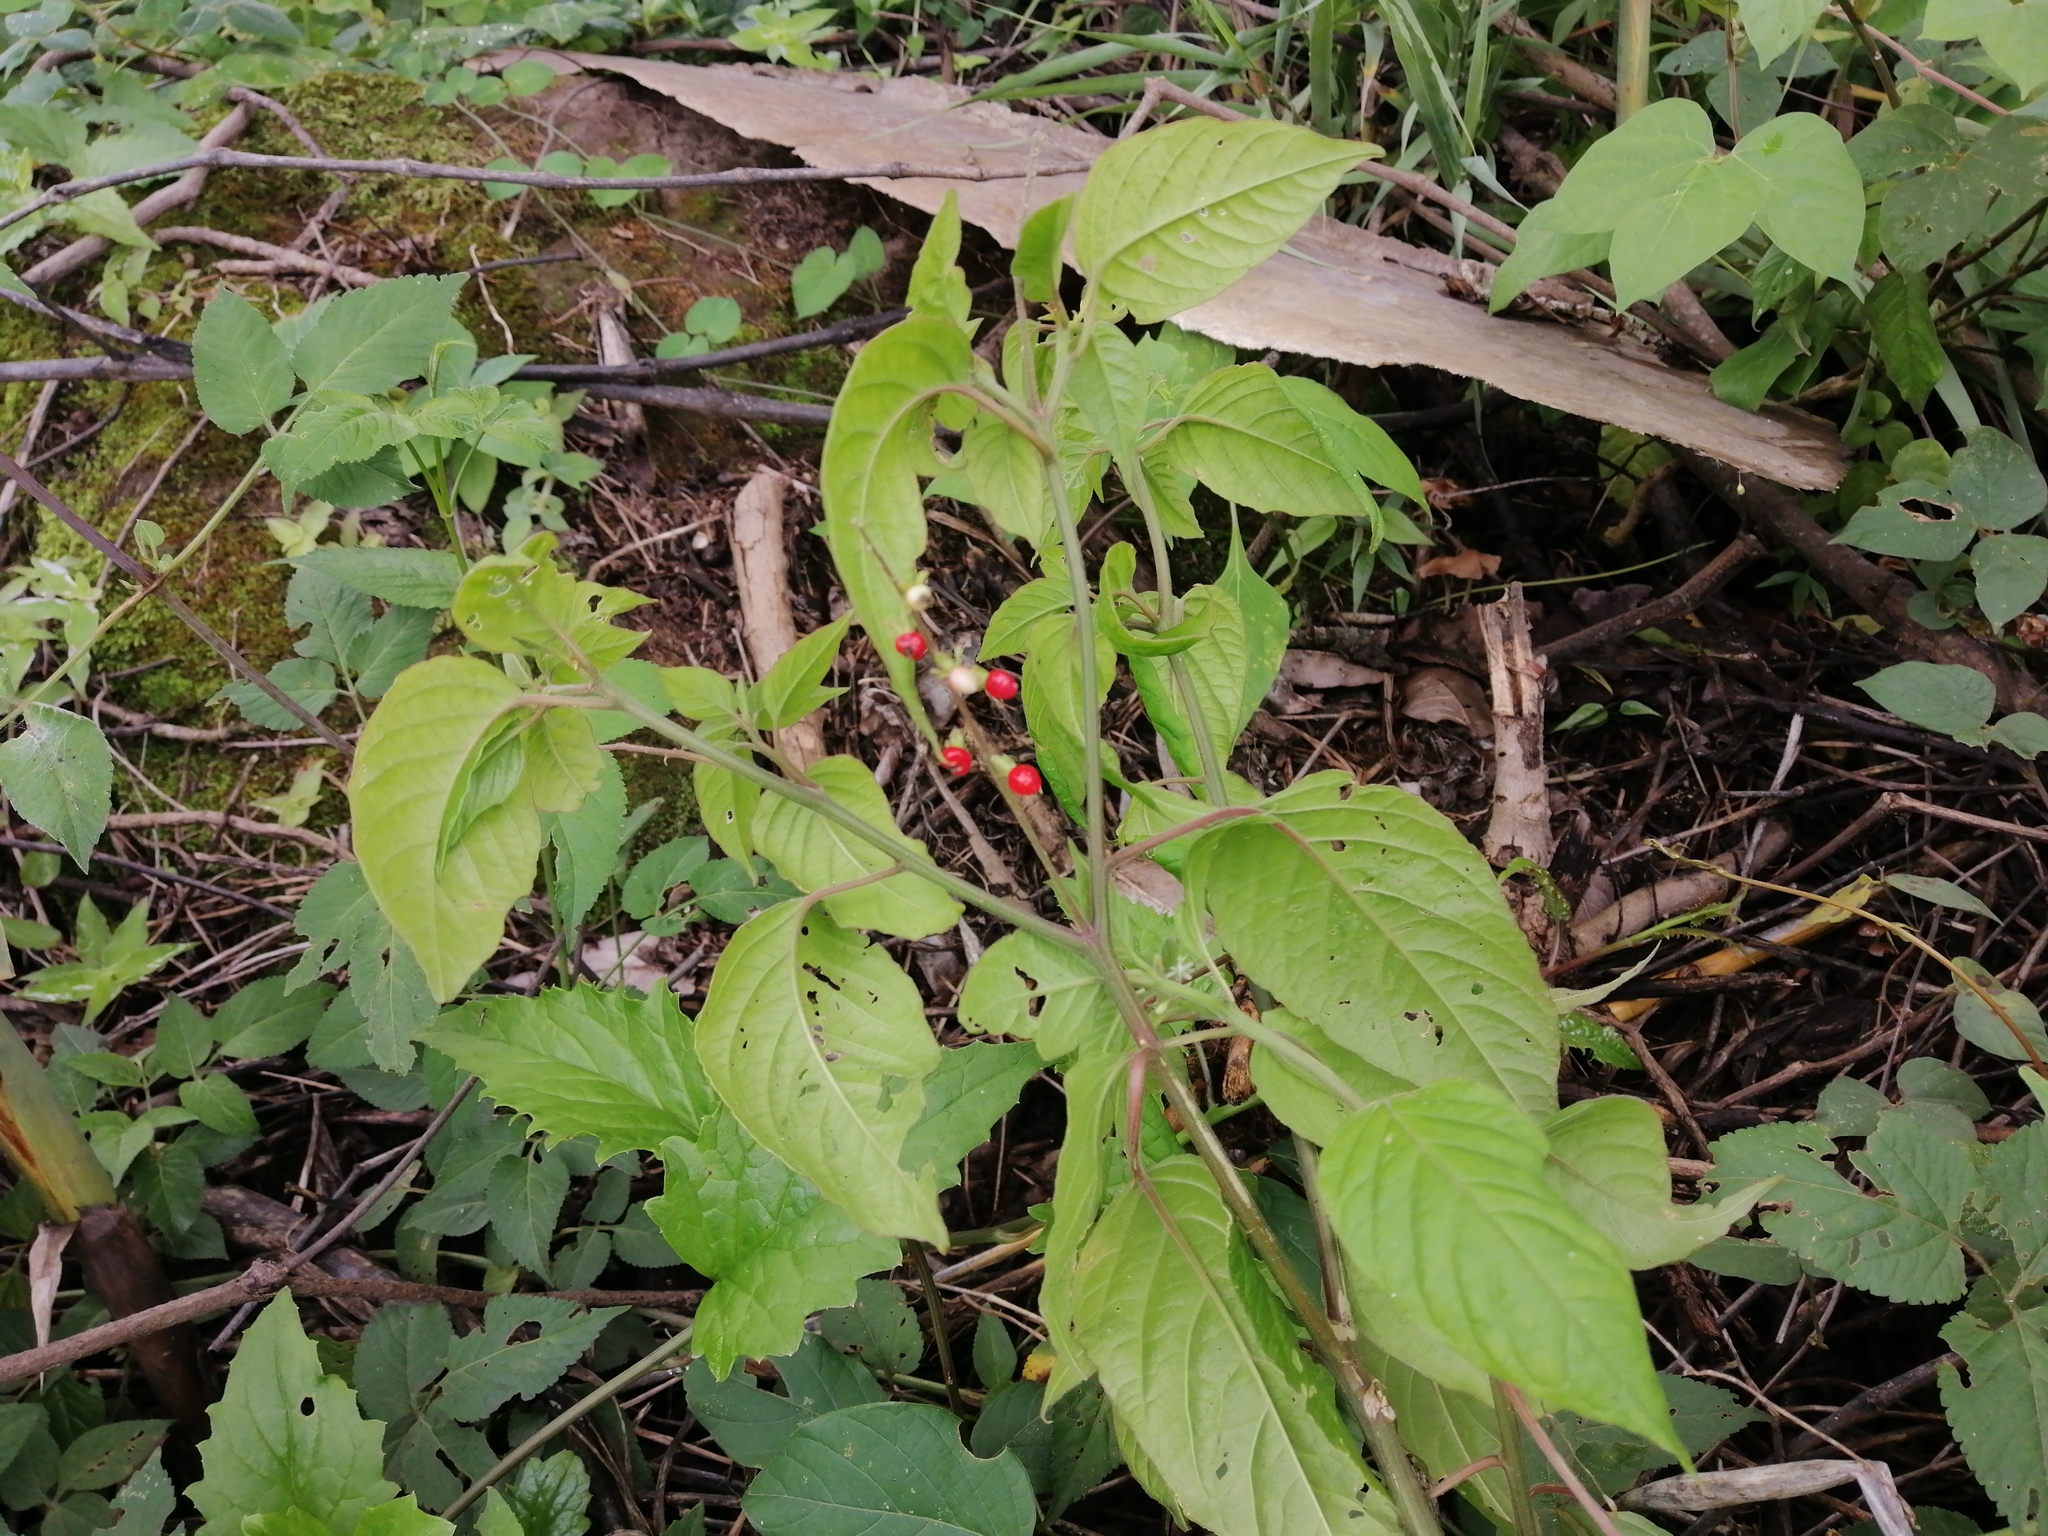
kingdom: Plantae
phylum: Tracheophyta
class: Magnoliopsida
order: Caryophyllales
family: Phytolaccaceae
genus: Rivina
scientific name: Rivina humilis
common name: Rougeplant
